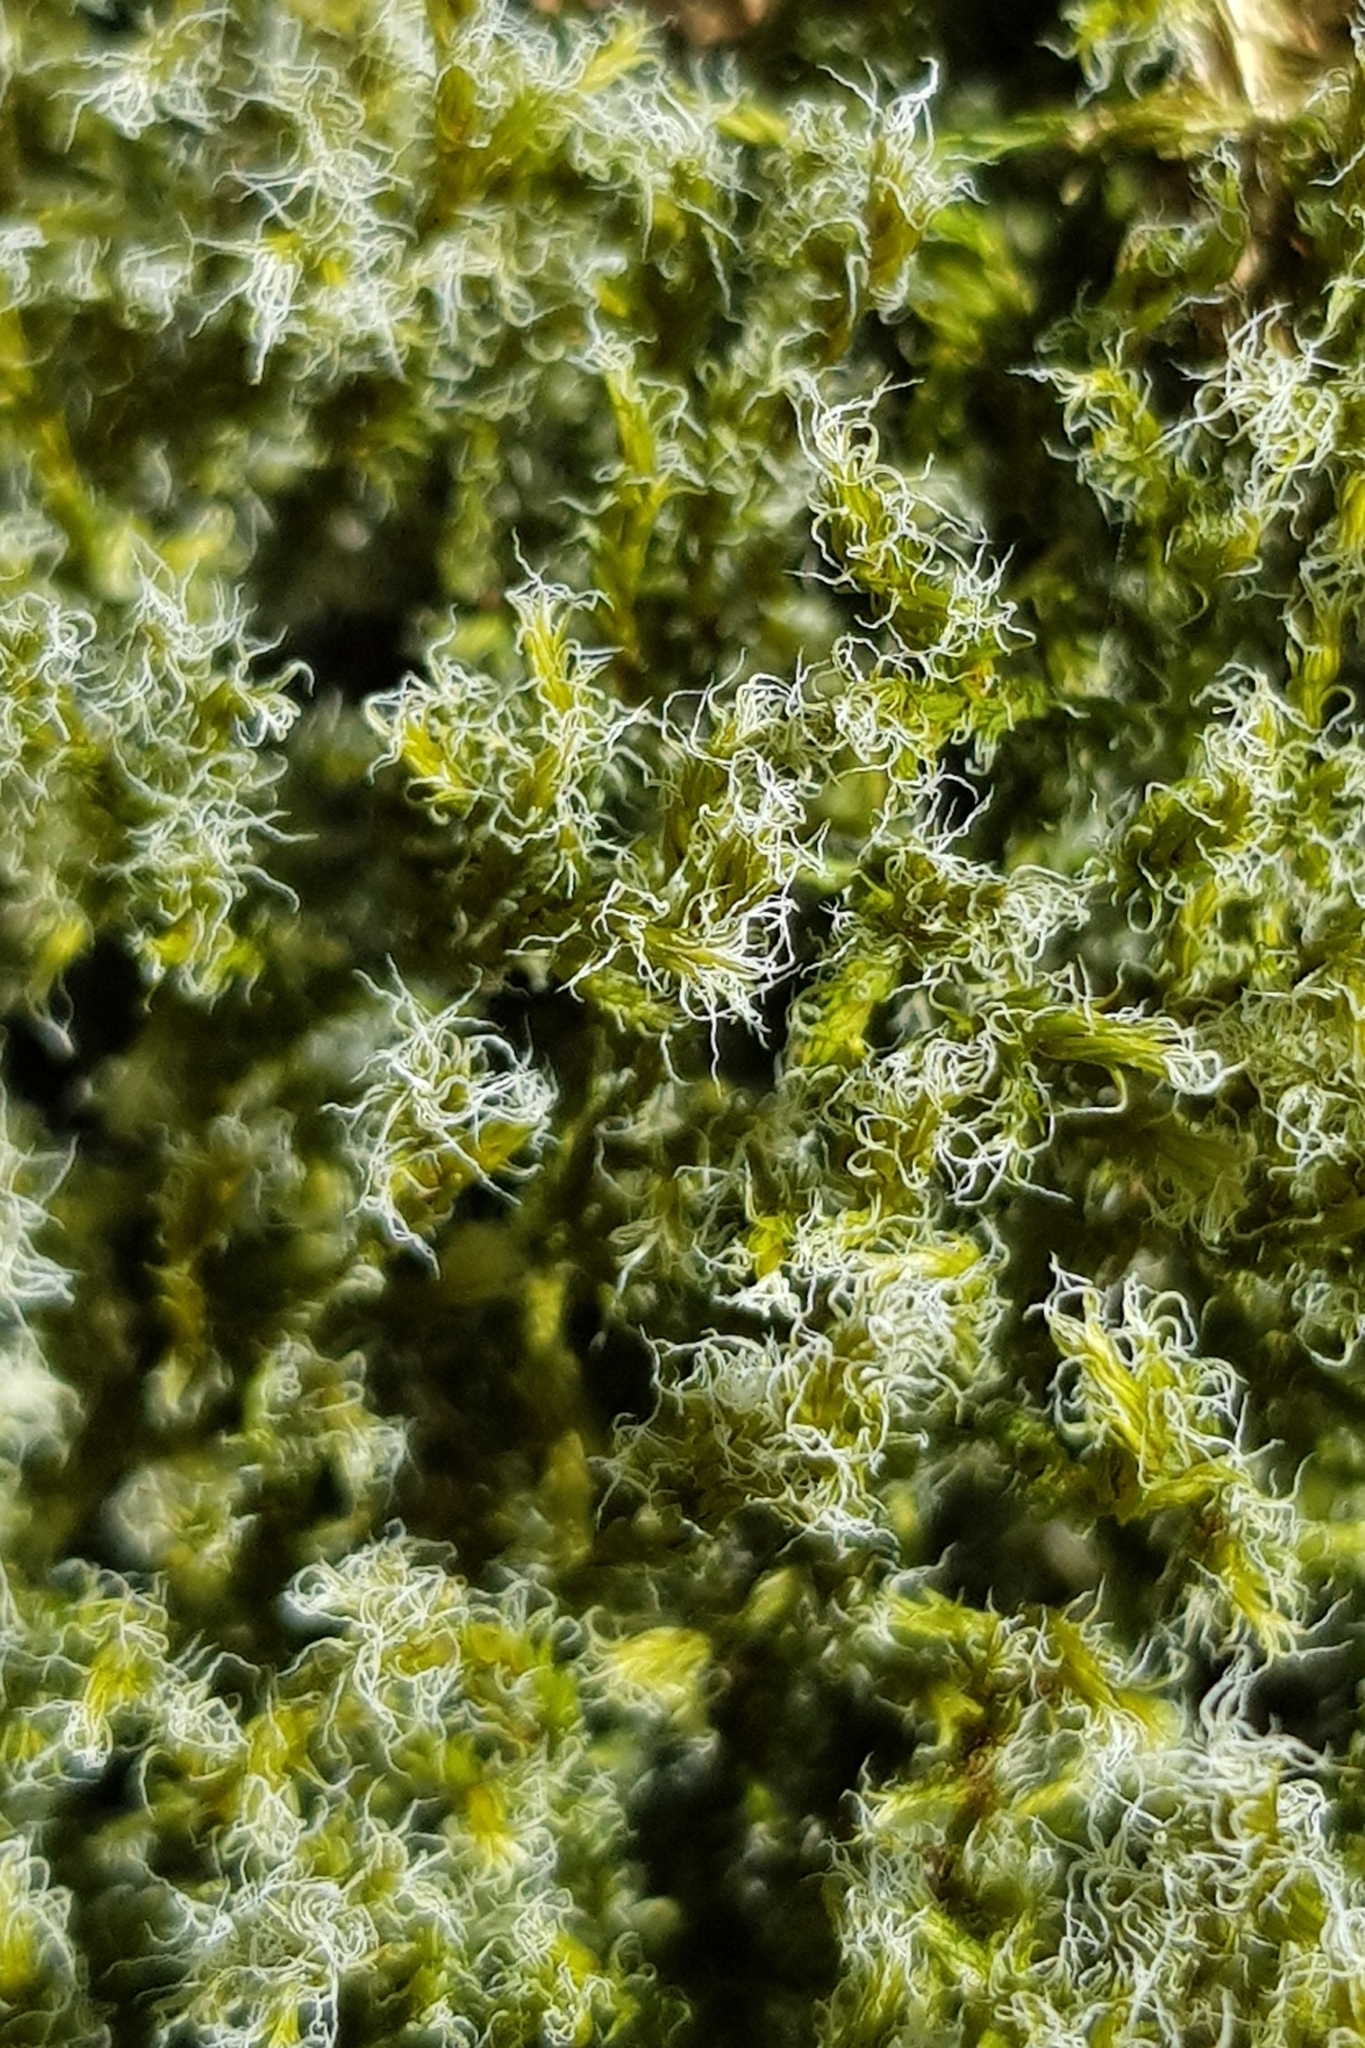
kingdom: Plantae
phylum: Bryophyta
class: Bryopsida
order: Grimmiales
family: Grimmiaceae
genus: Racomitrium
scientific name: Racomitrium lanuginosum
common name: Hoary rock moss
